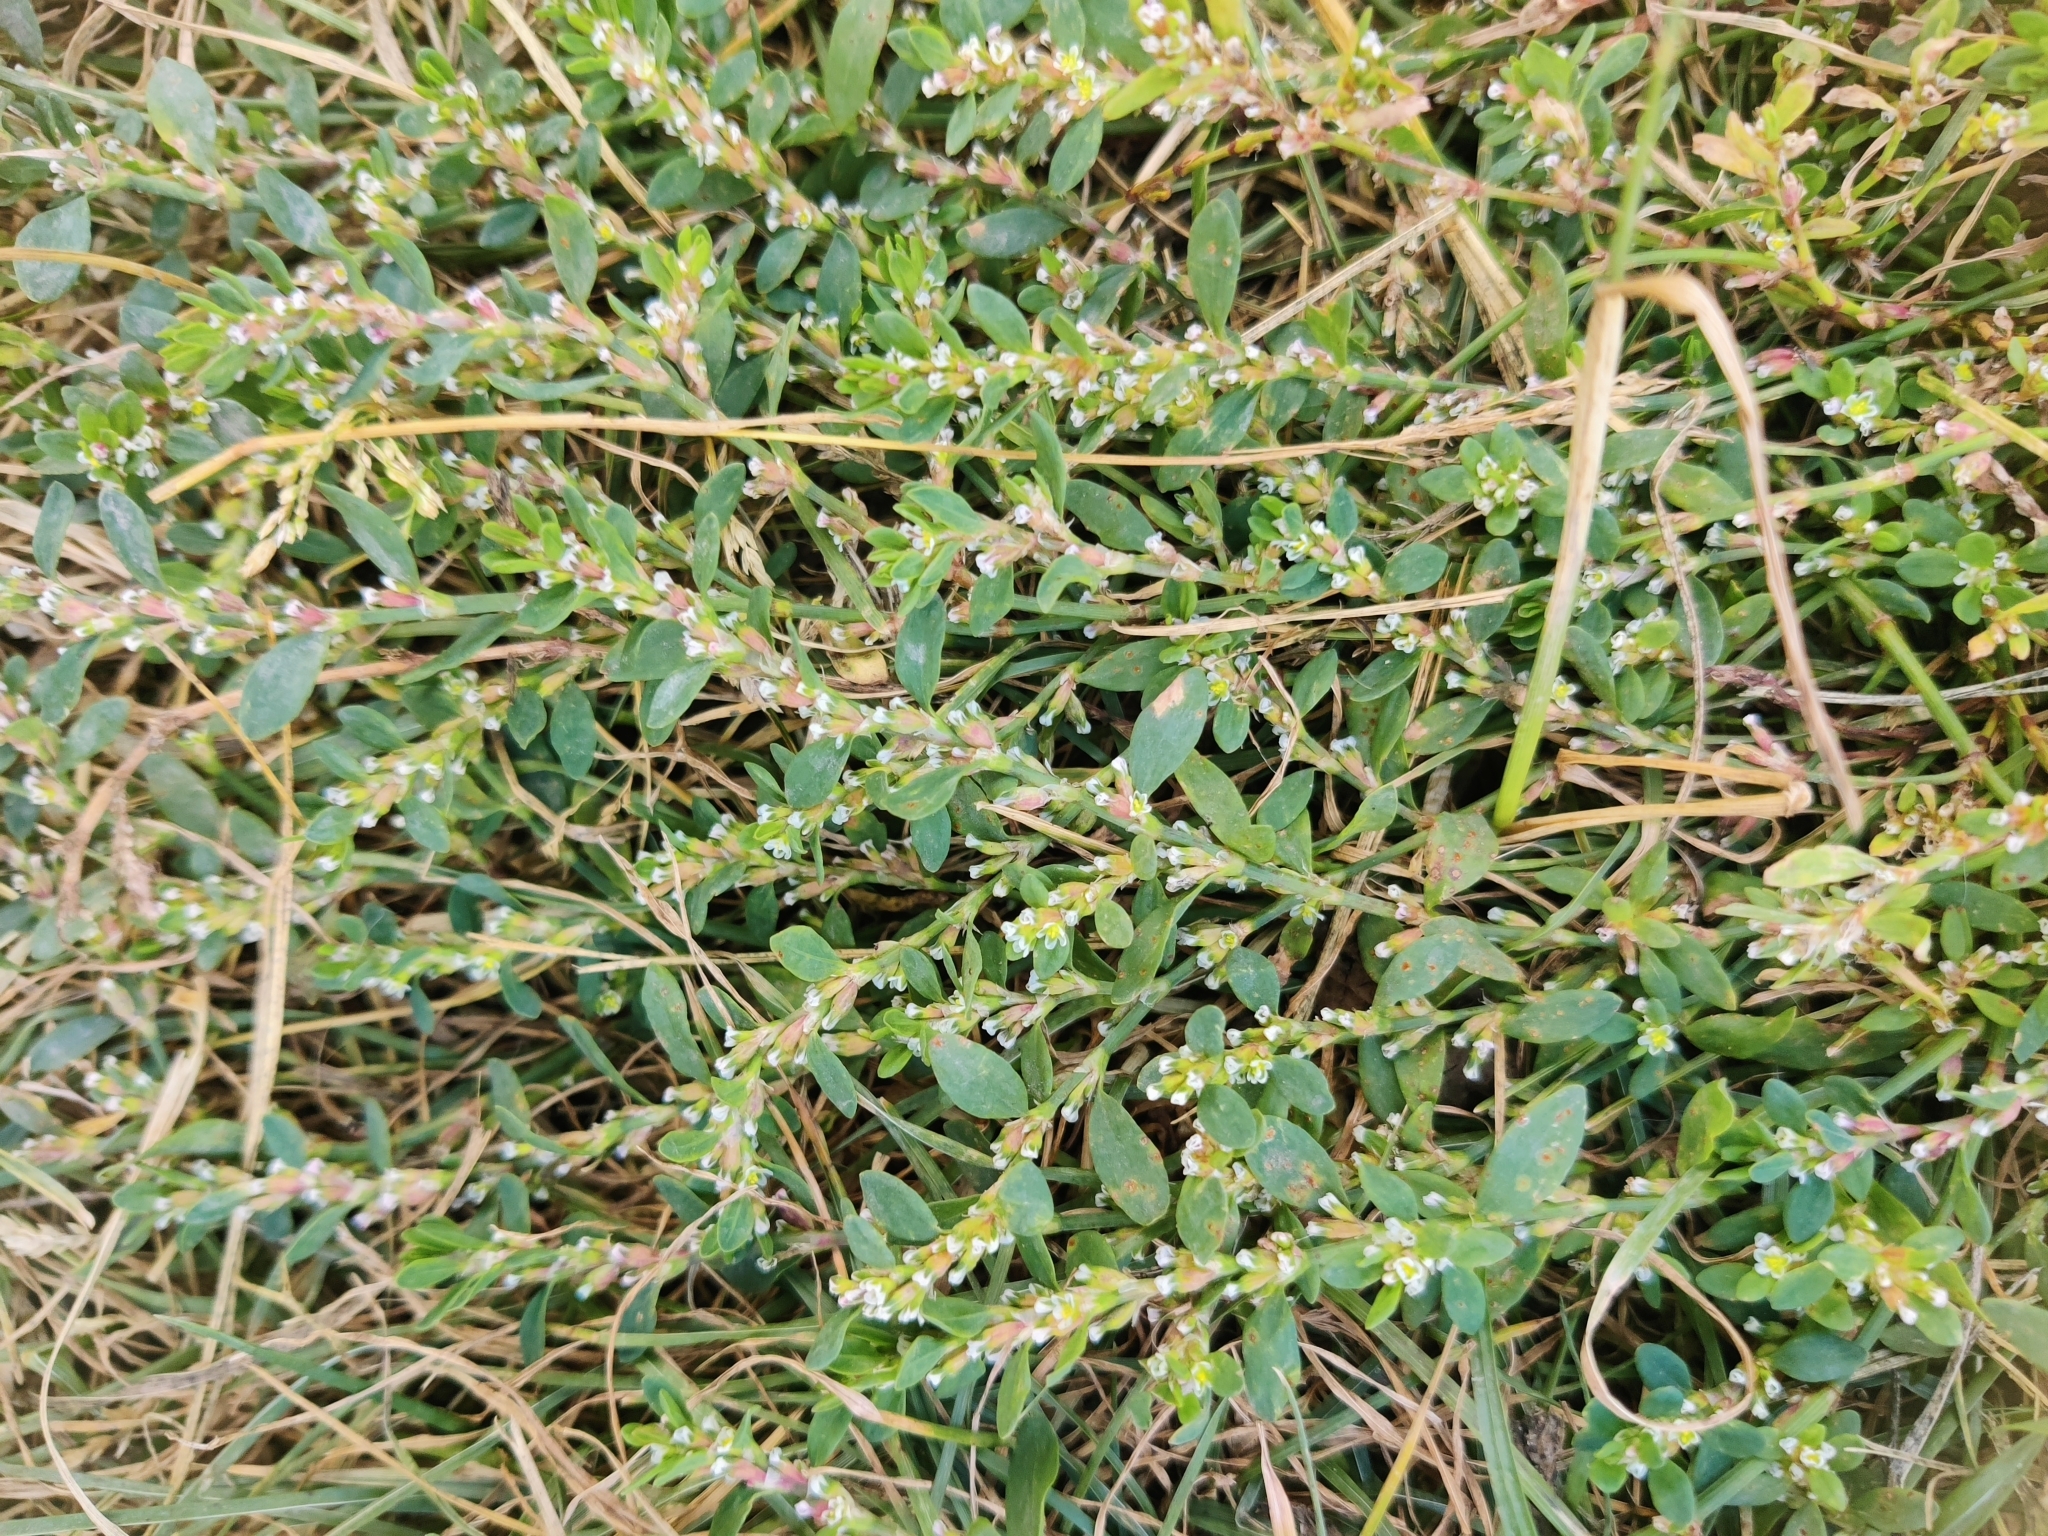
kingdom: Plantae
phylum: Tracheophyta
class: Magnoliopsida
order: Caryophyllales
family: Polygonaceae
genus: Polygonum
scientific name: Polygonum
